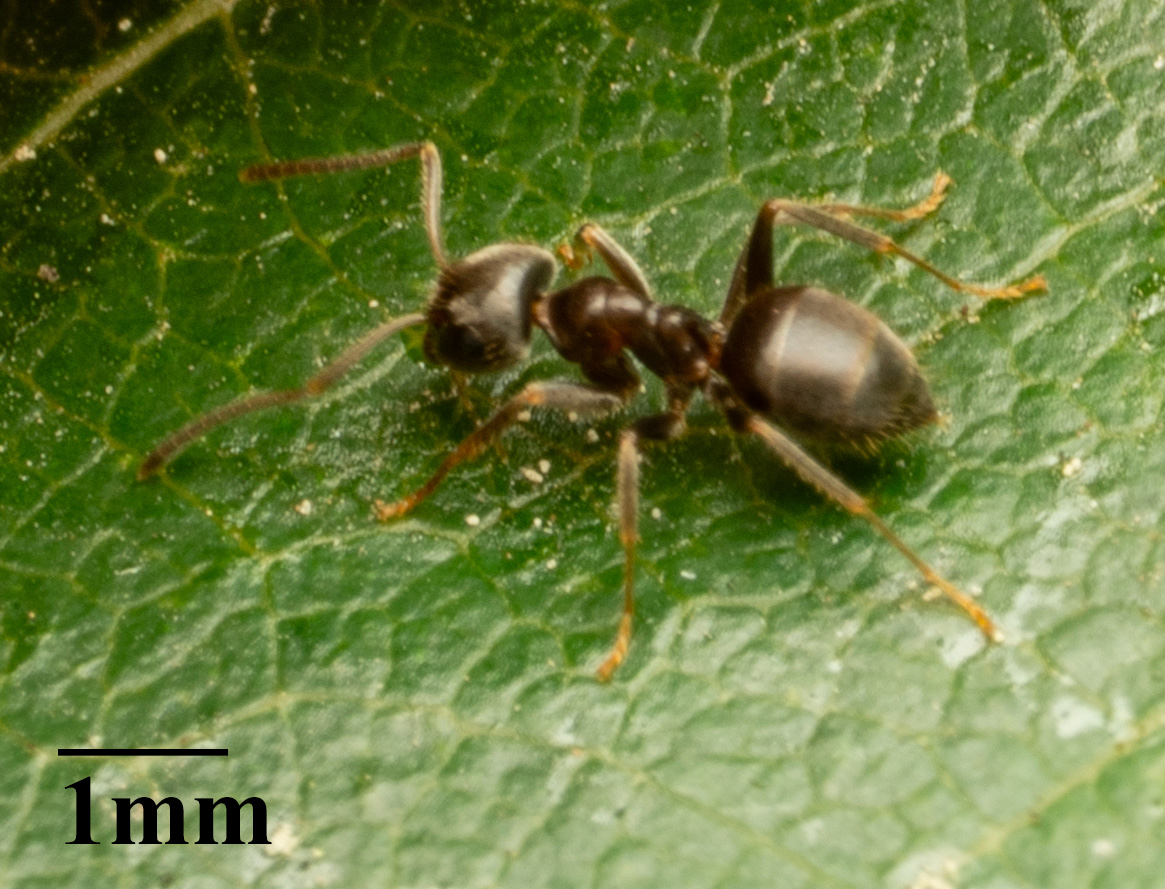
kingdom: Animalia
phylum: Arthropoda
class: Insecta
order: Hymenoptera
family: Formicidae
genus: Lasius
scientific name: Lasius ponderosae
